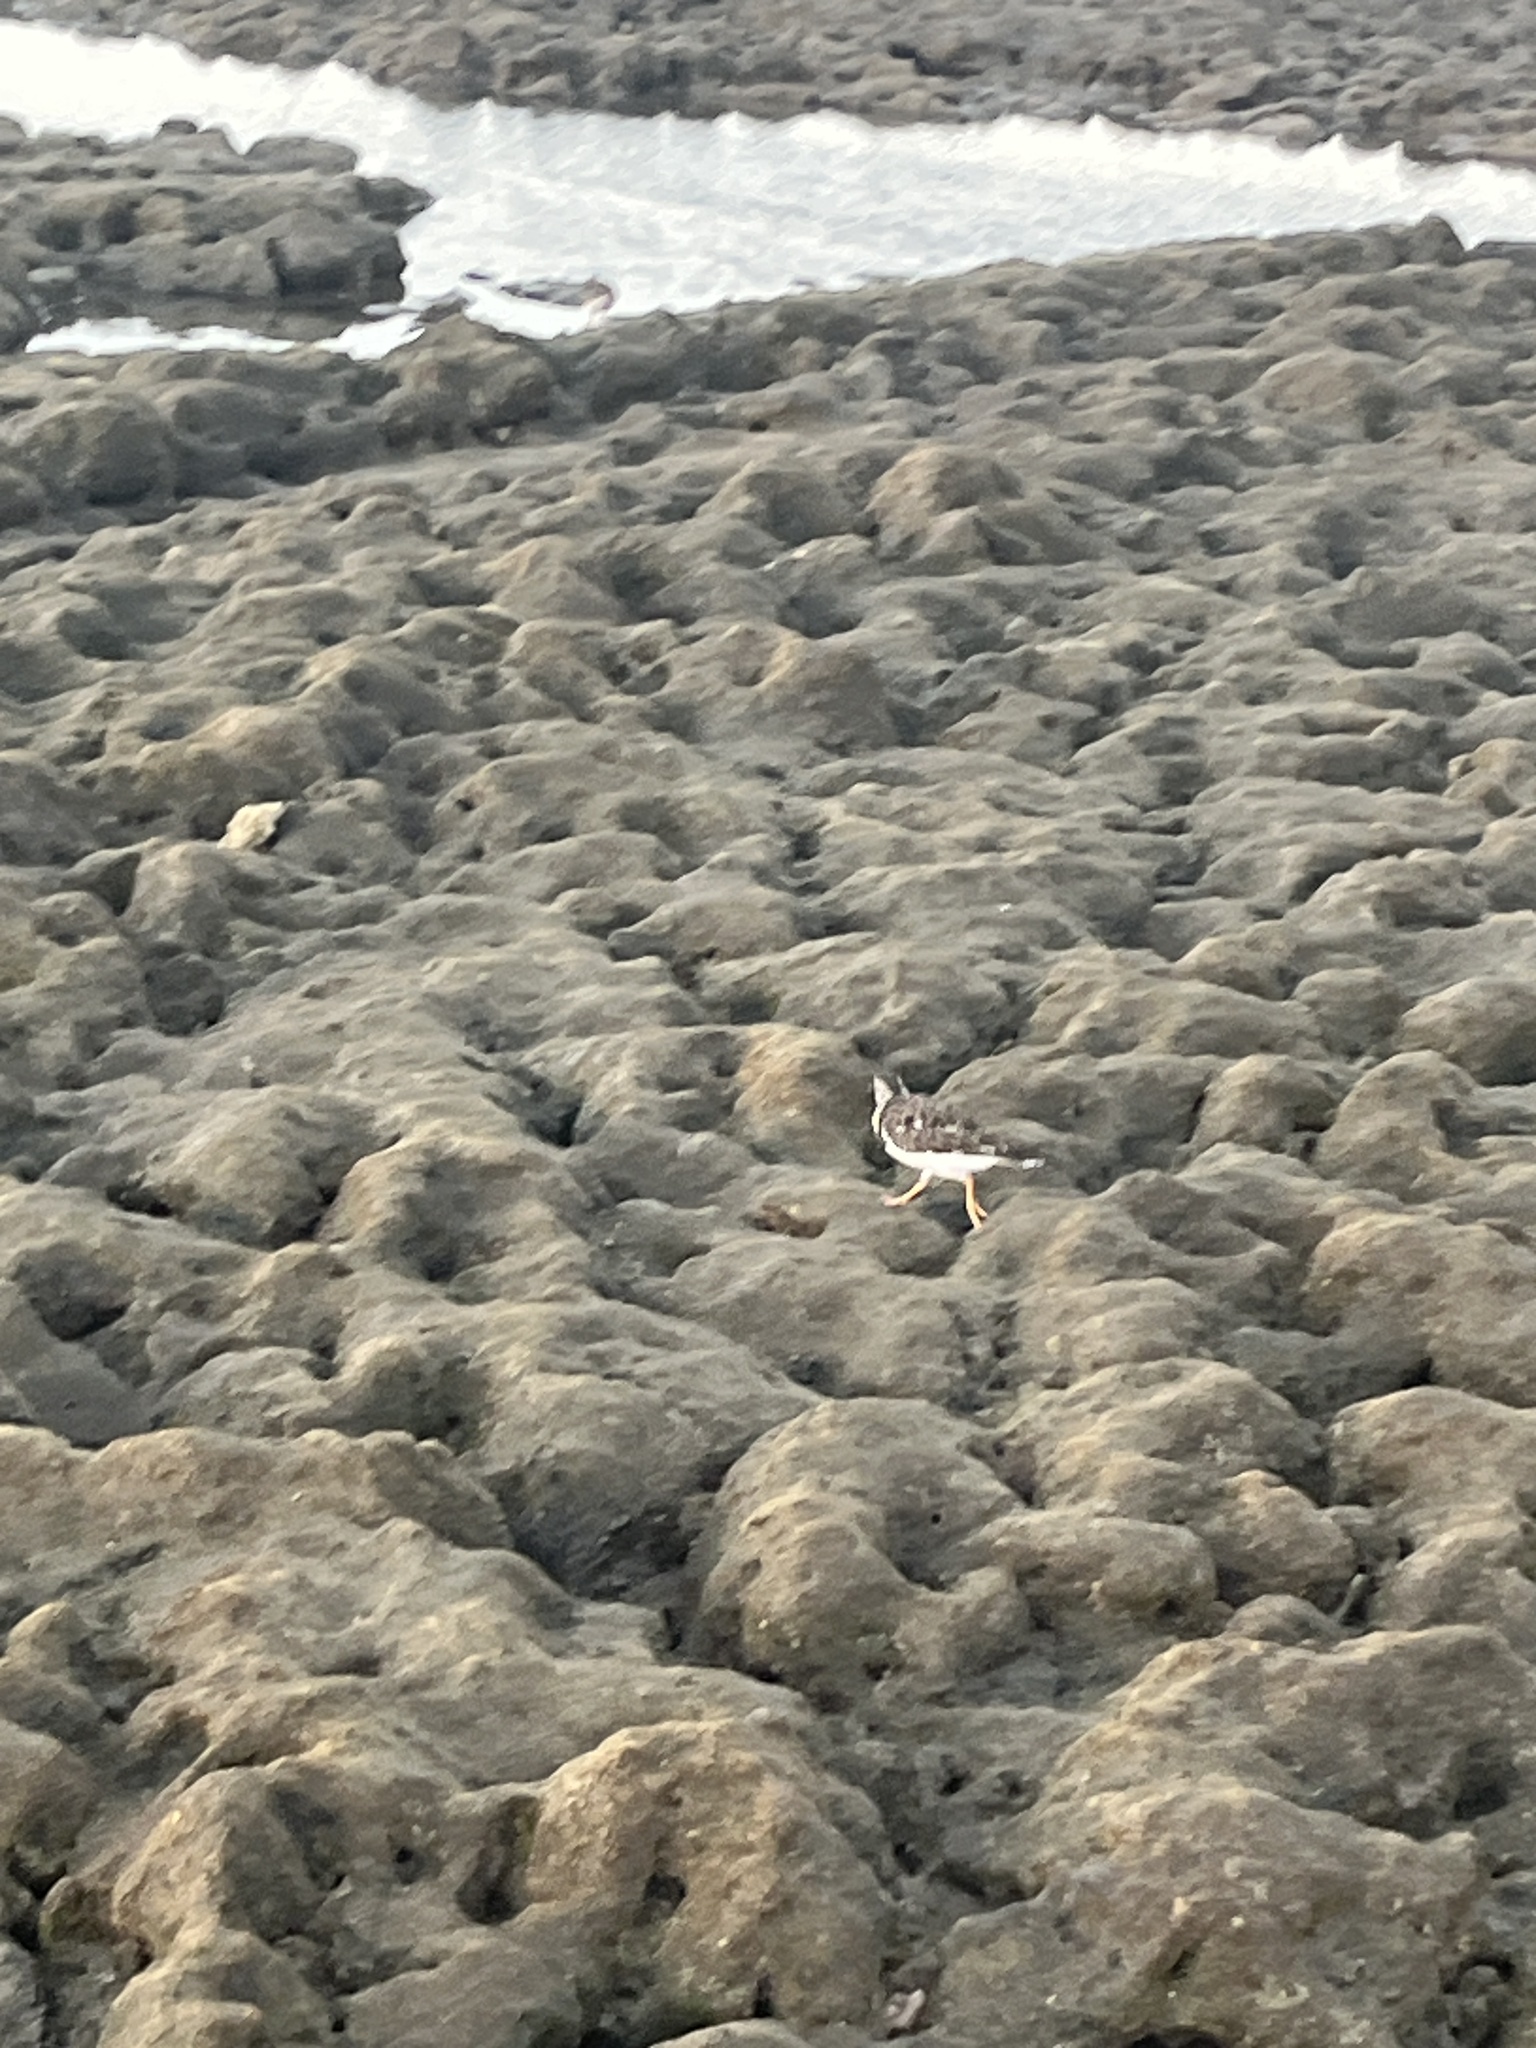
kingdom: Animalia
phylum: Chordata
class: Aves
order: Charadriiformes
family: Scolopacidae
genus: Arenaria
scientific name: Arenaria interpres
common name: Ruddy turnstone
